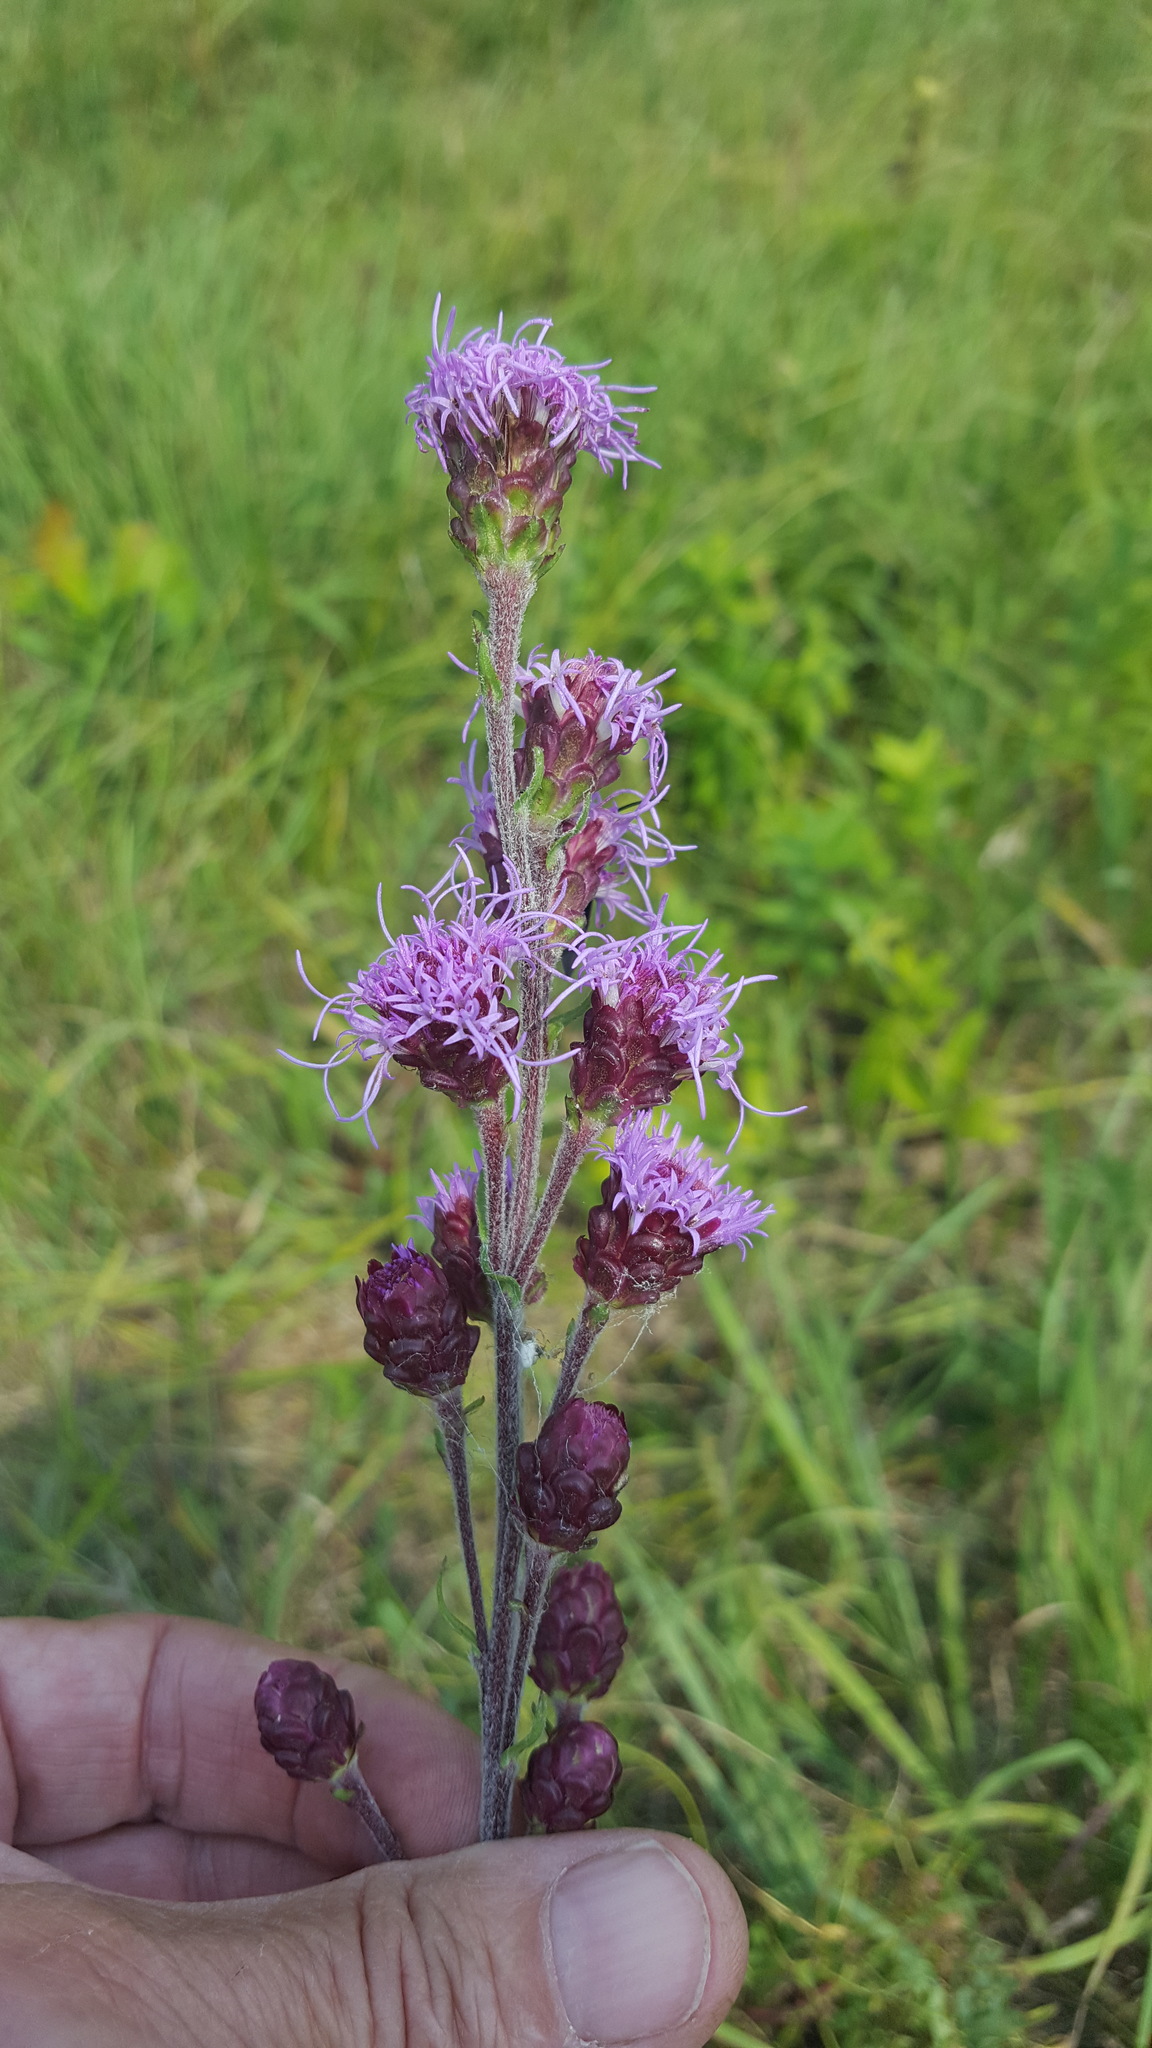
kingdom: Plantae
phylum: Tracheophyta
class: Magnoliopsida
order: Asterales
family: Asteraceae
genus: Liatris
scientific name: Liatris ligulistylis
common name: Northern plains gayfeather
